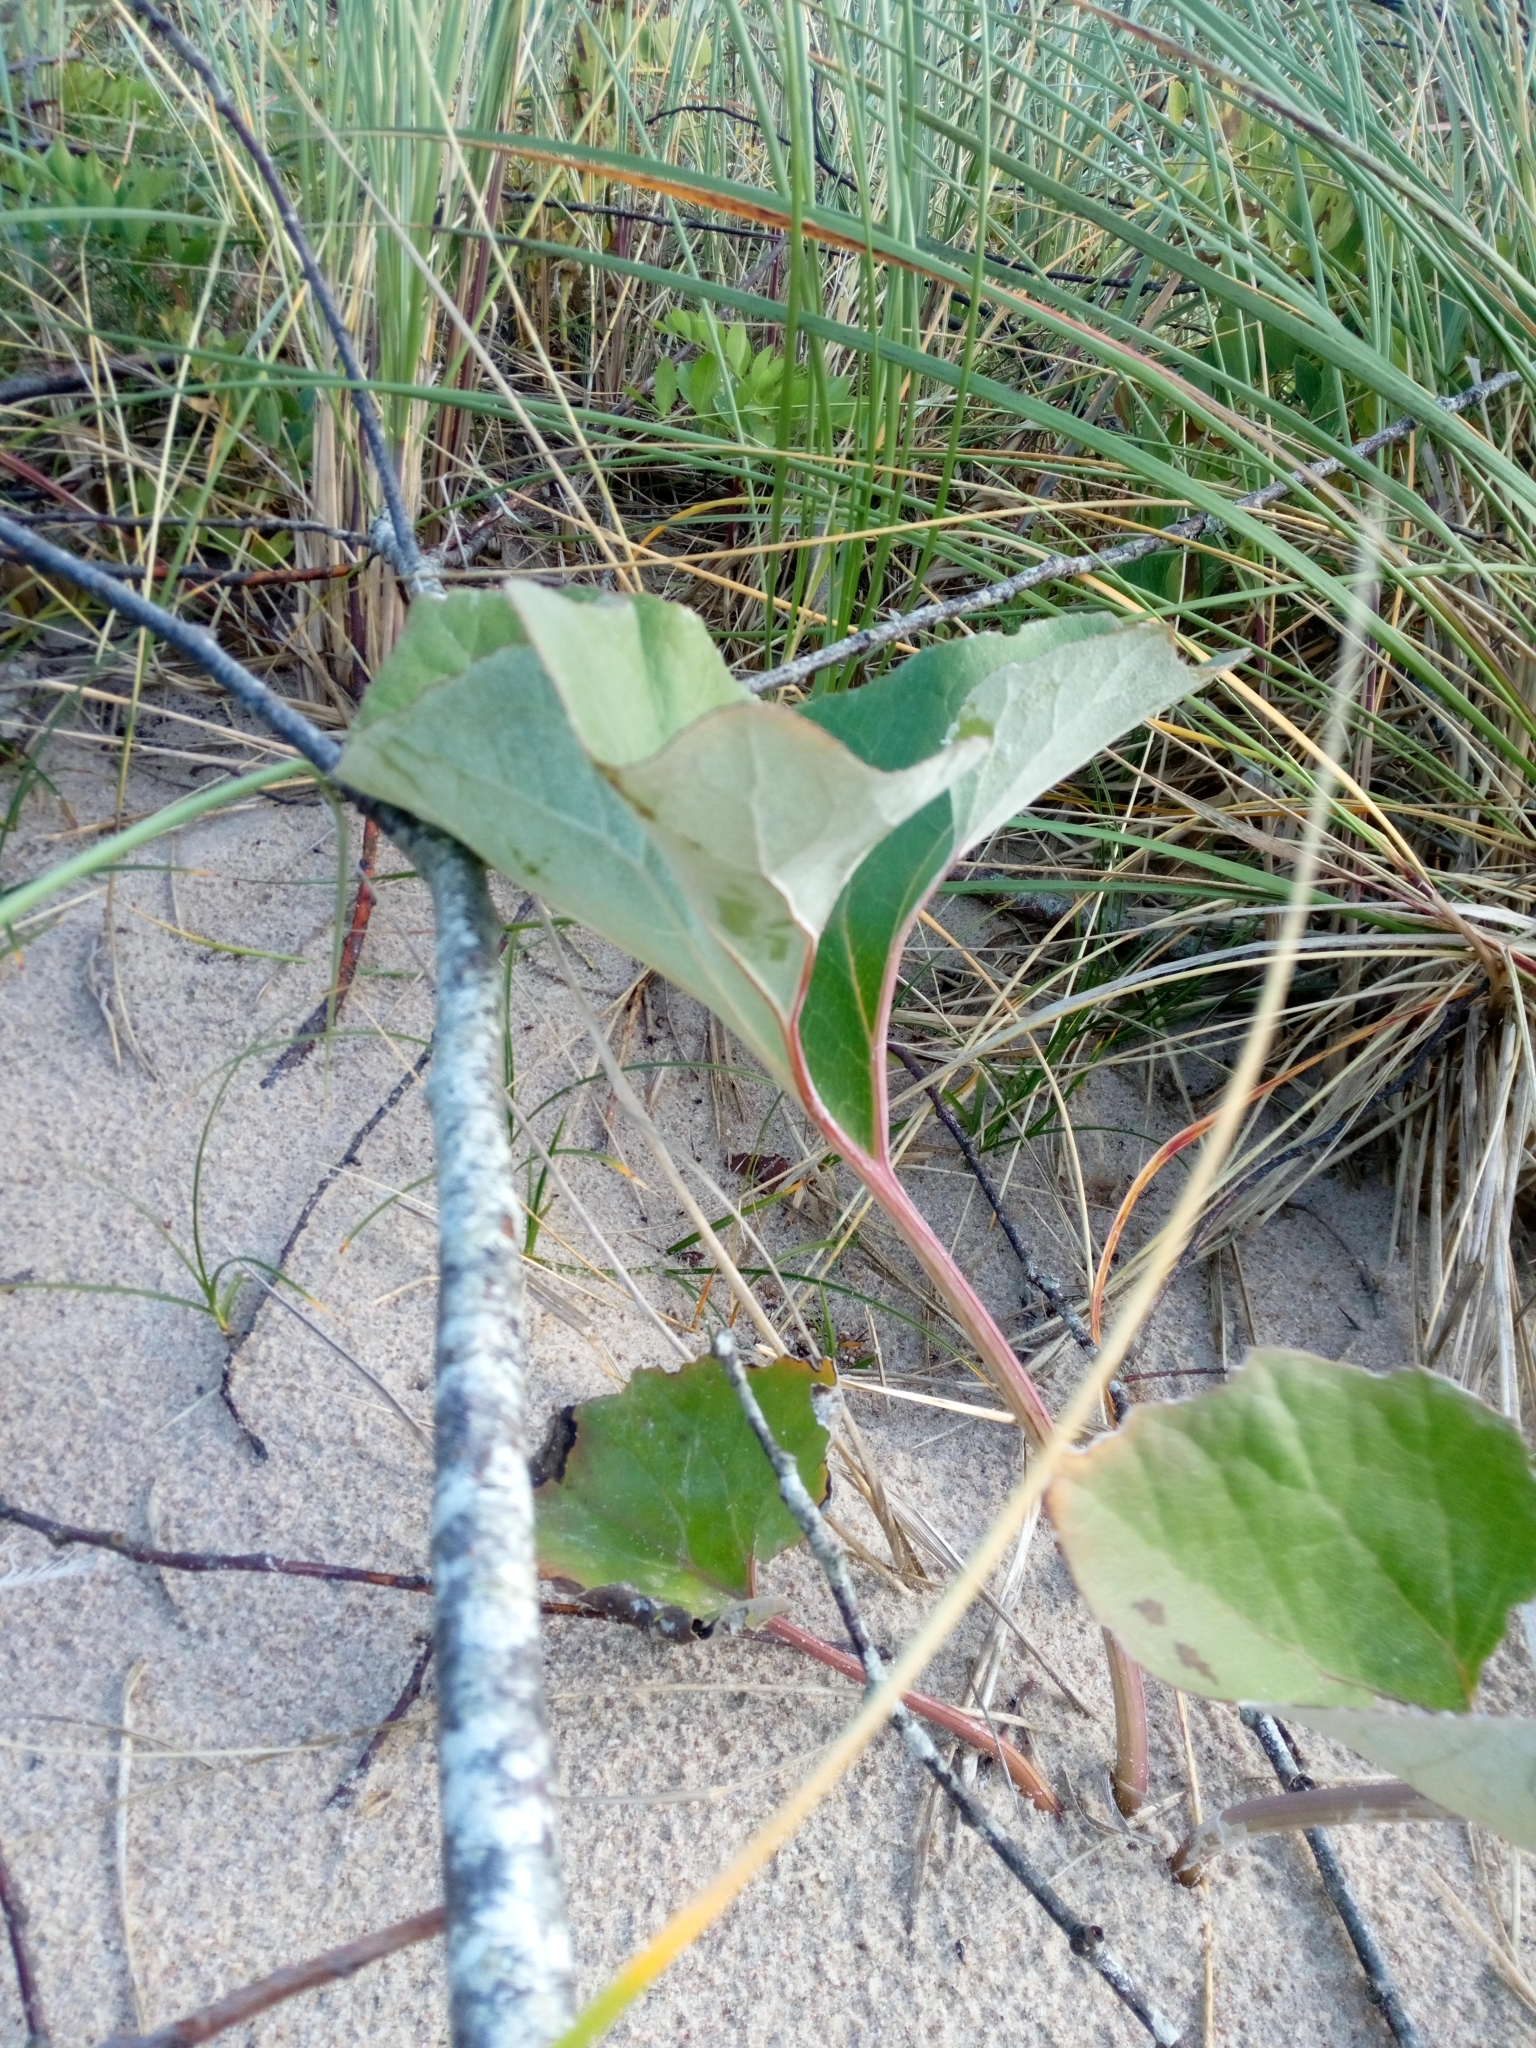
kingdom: Plantae
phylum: Tracheophyta
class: Magnoliopsida
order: Asterales
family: Asteraceae
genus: Petasites
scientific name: Petasites spurius
